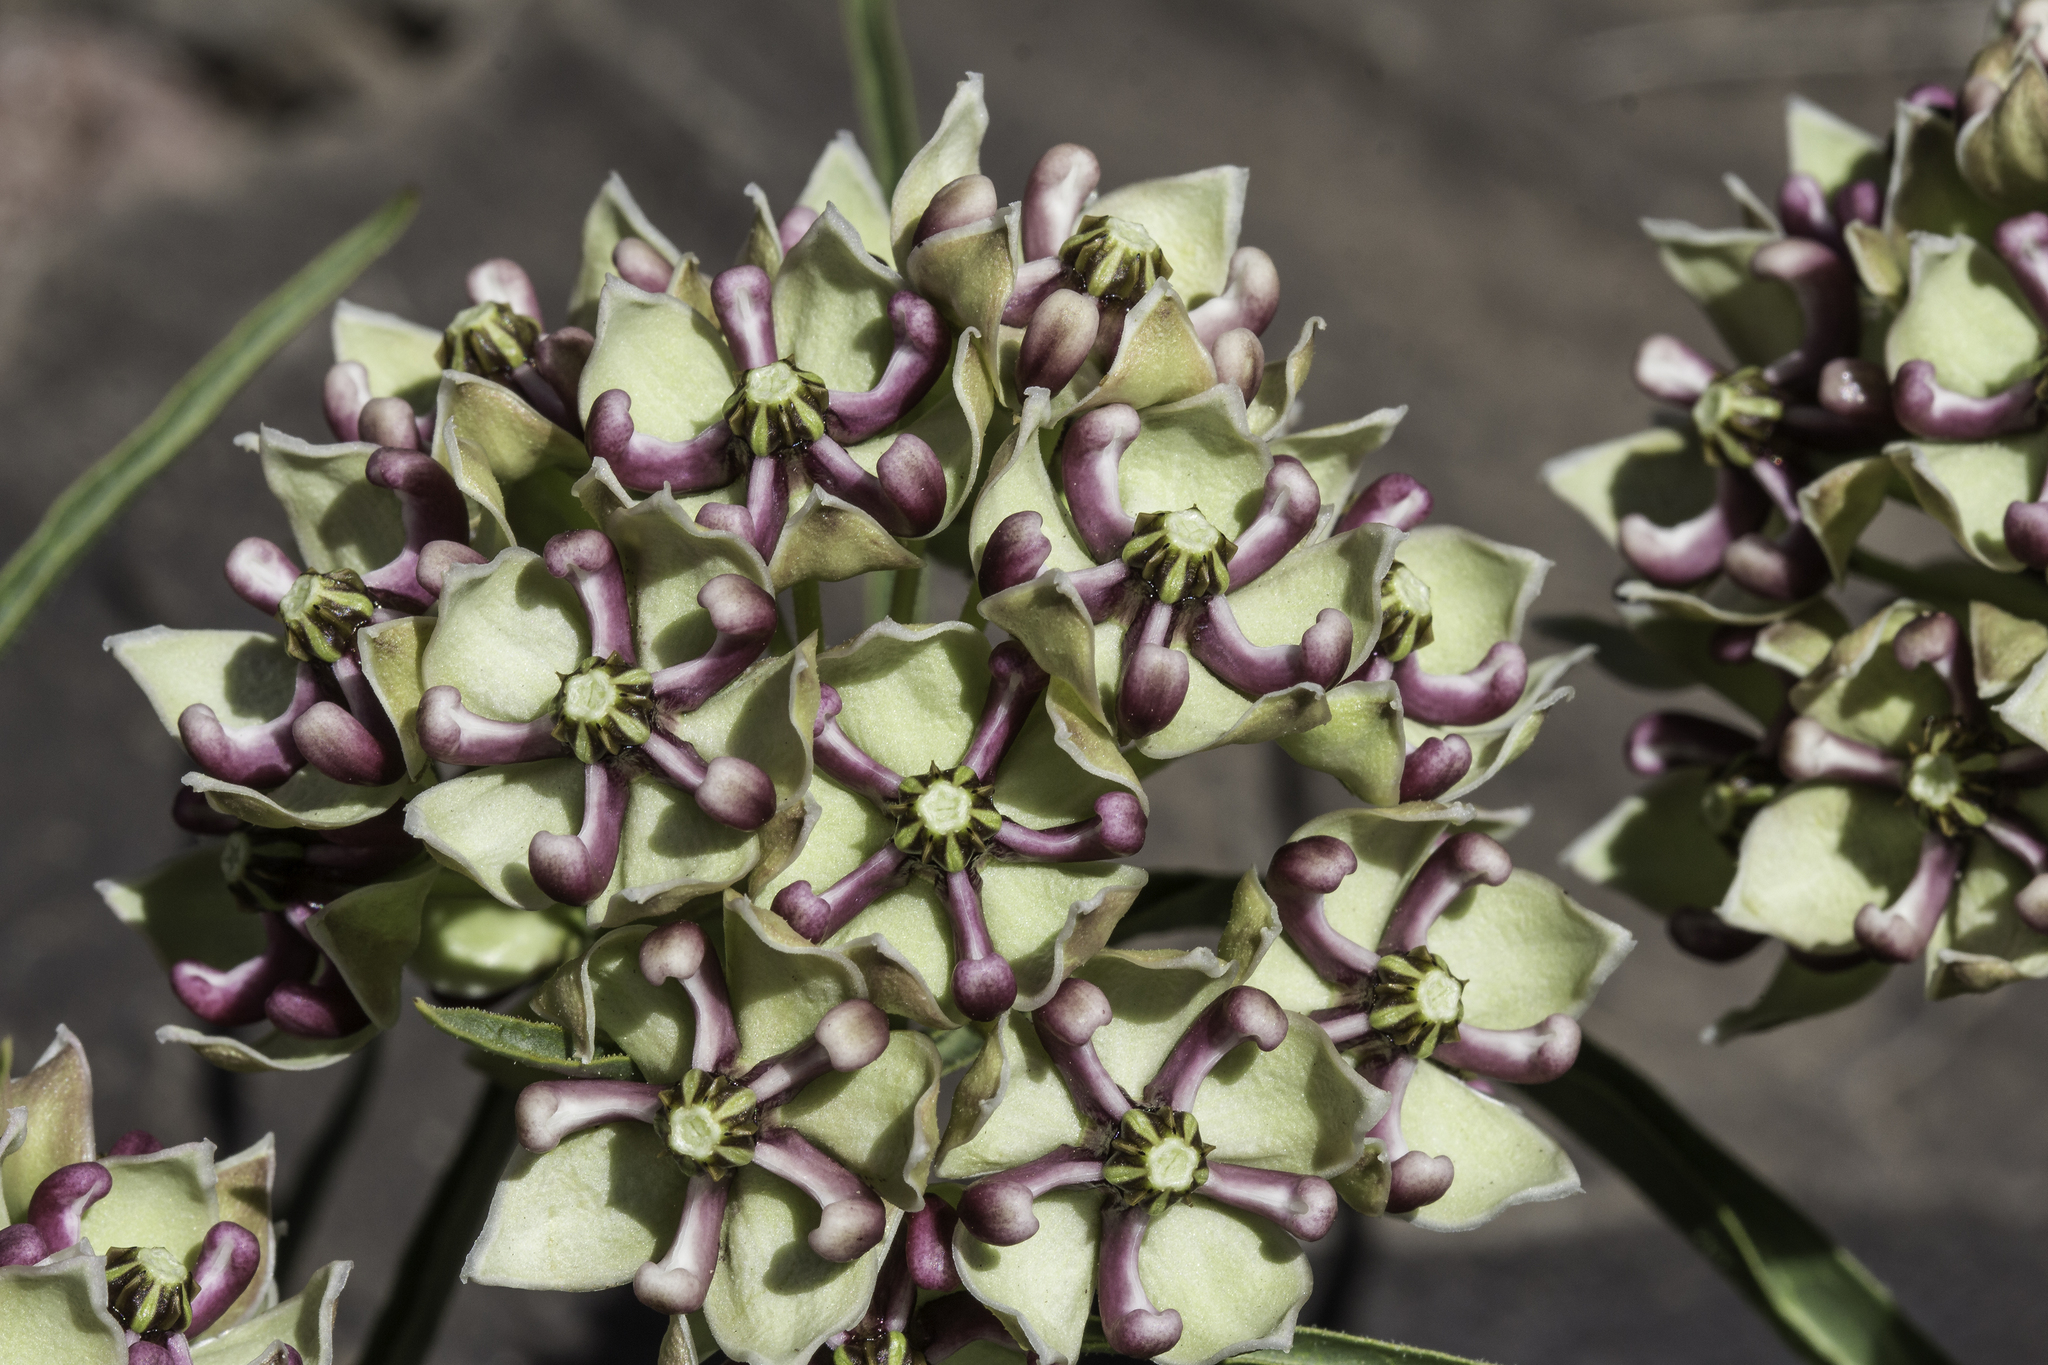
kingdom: Plantae
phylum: Tracheophyta
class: Magnoliopsida
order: Gentianales
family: Apocynaceae
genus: Asclepias
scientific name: Asclepias asperula
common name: Antelope horns
